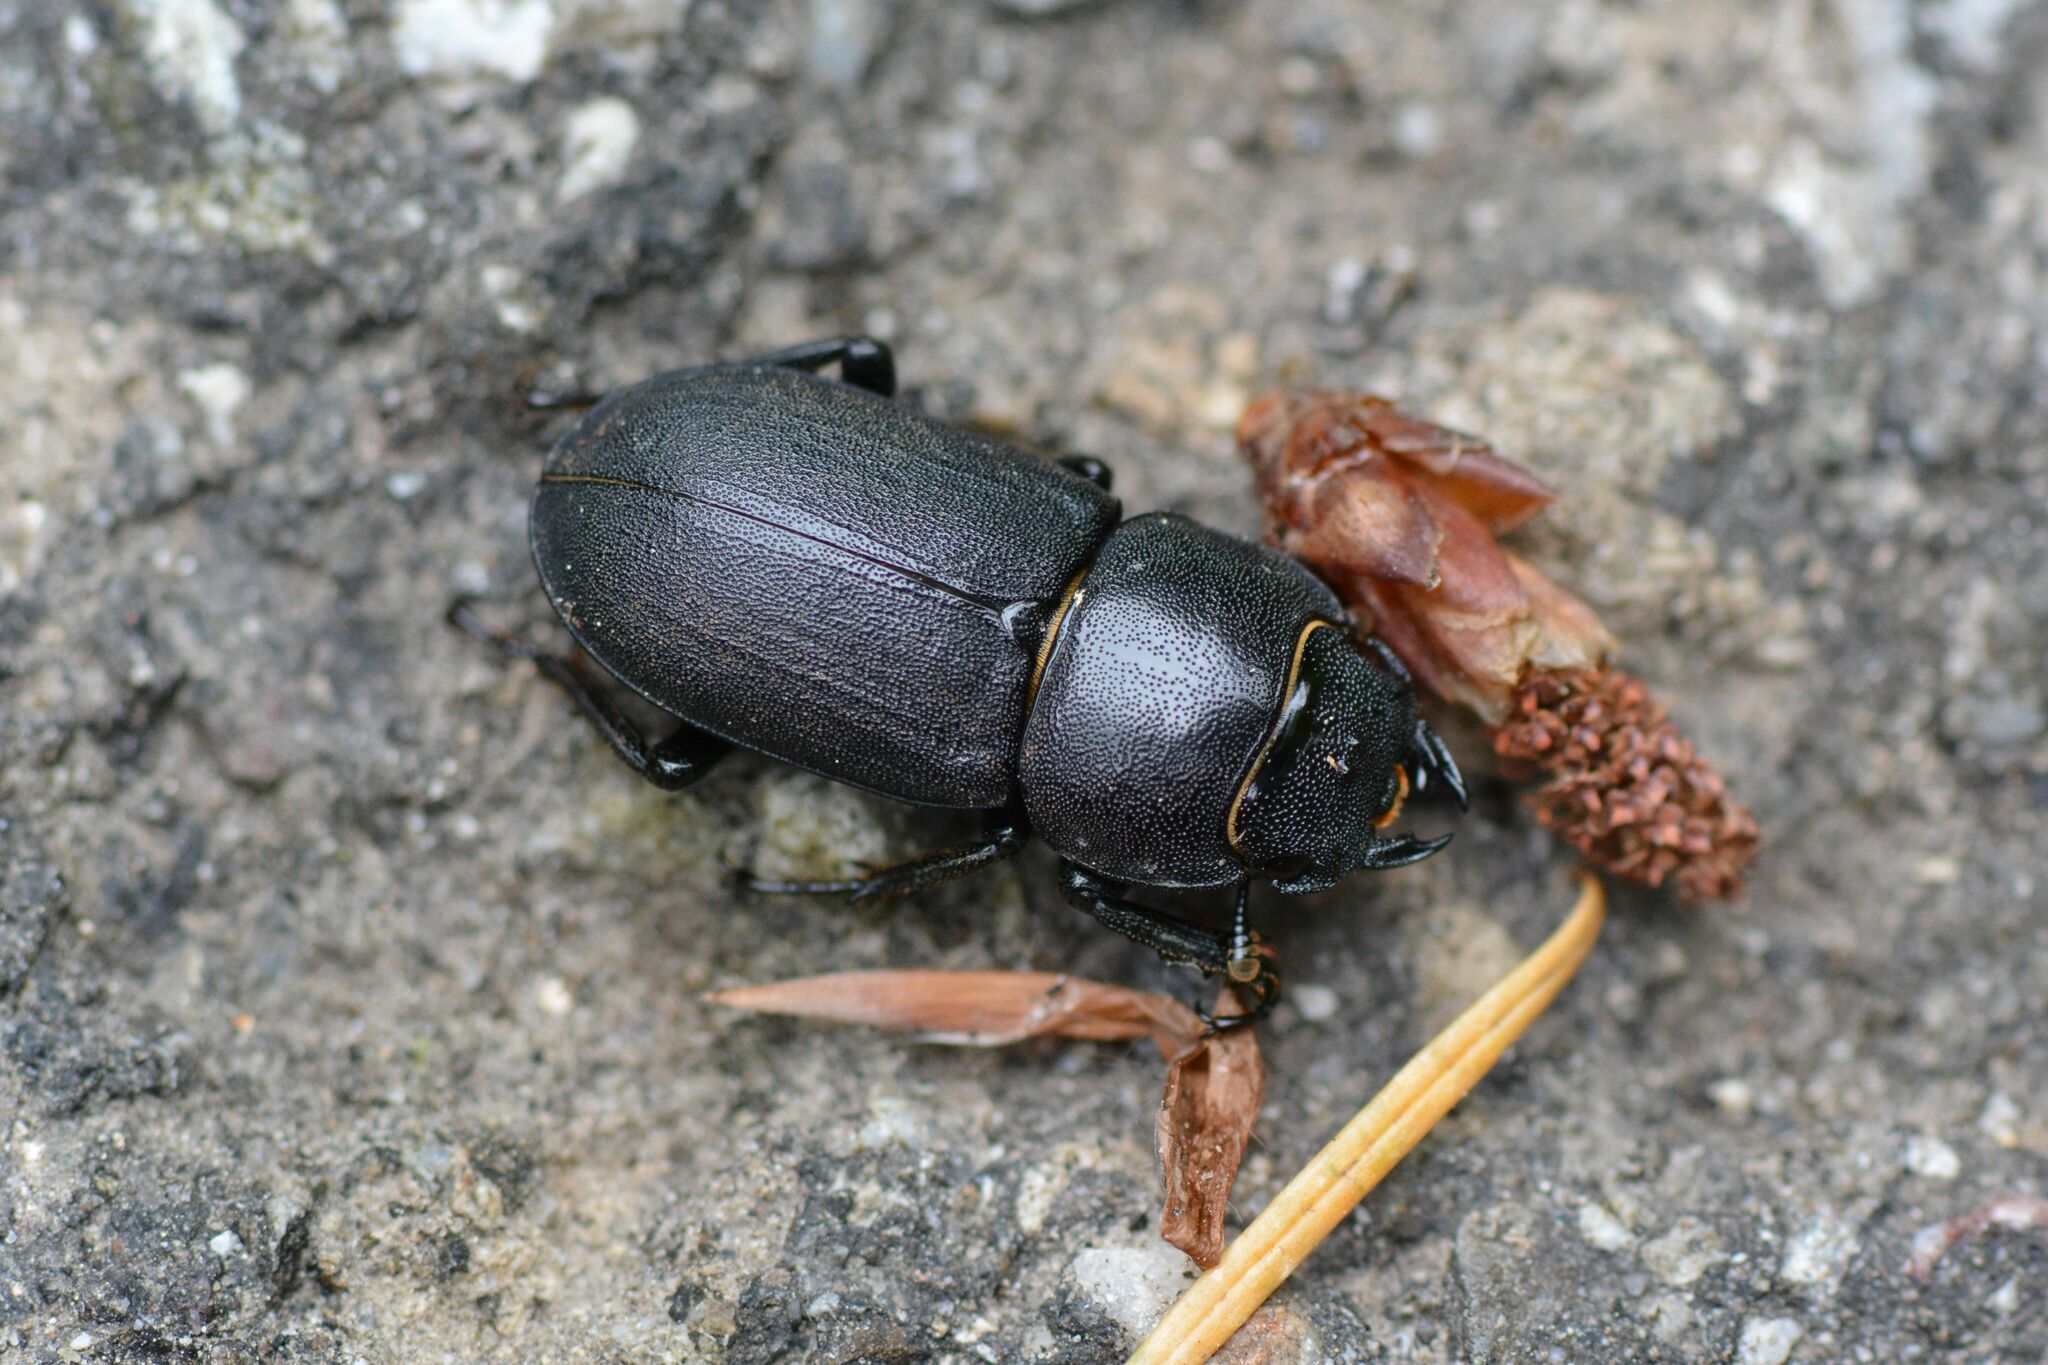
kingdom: Animalia
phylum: Arthropoda
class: Insecta
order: Coleoptera
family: Lucanidae
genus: Dorcus
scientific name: Dorcus parallelipipedus
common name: Lesser stag beetle
